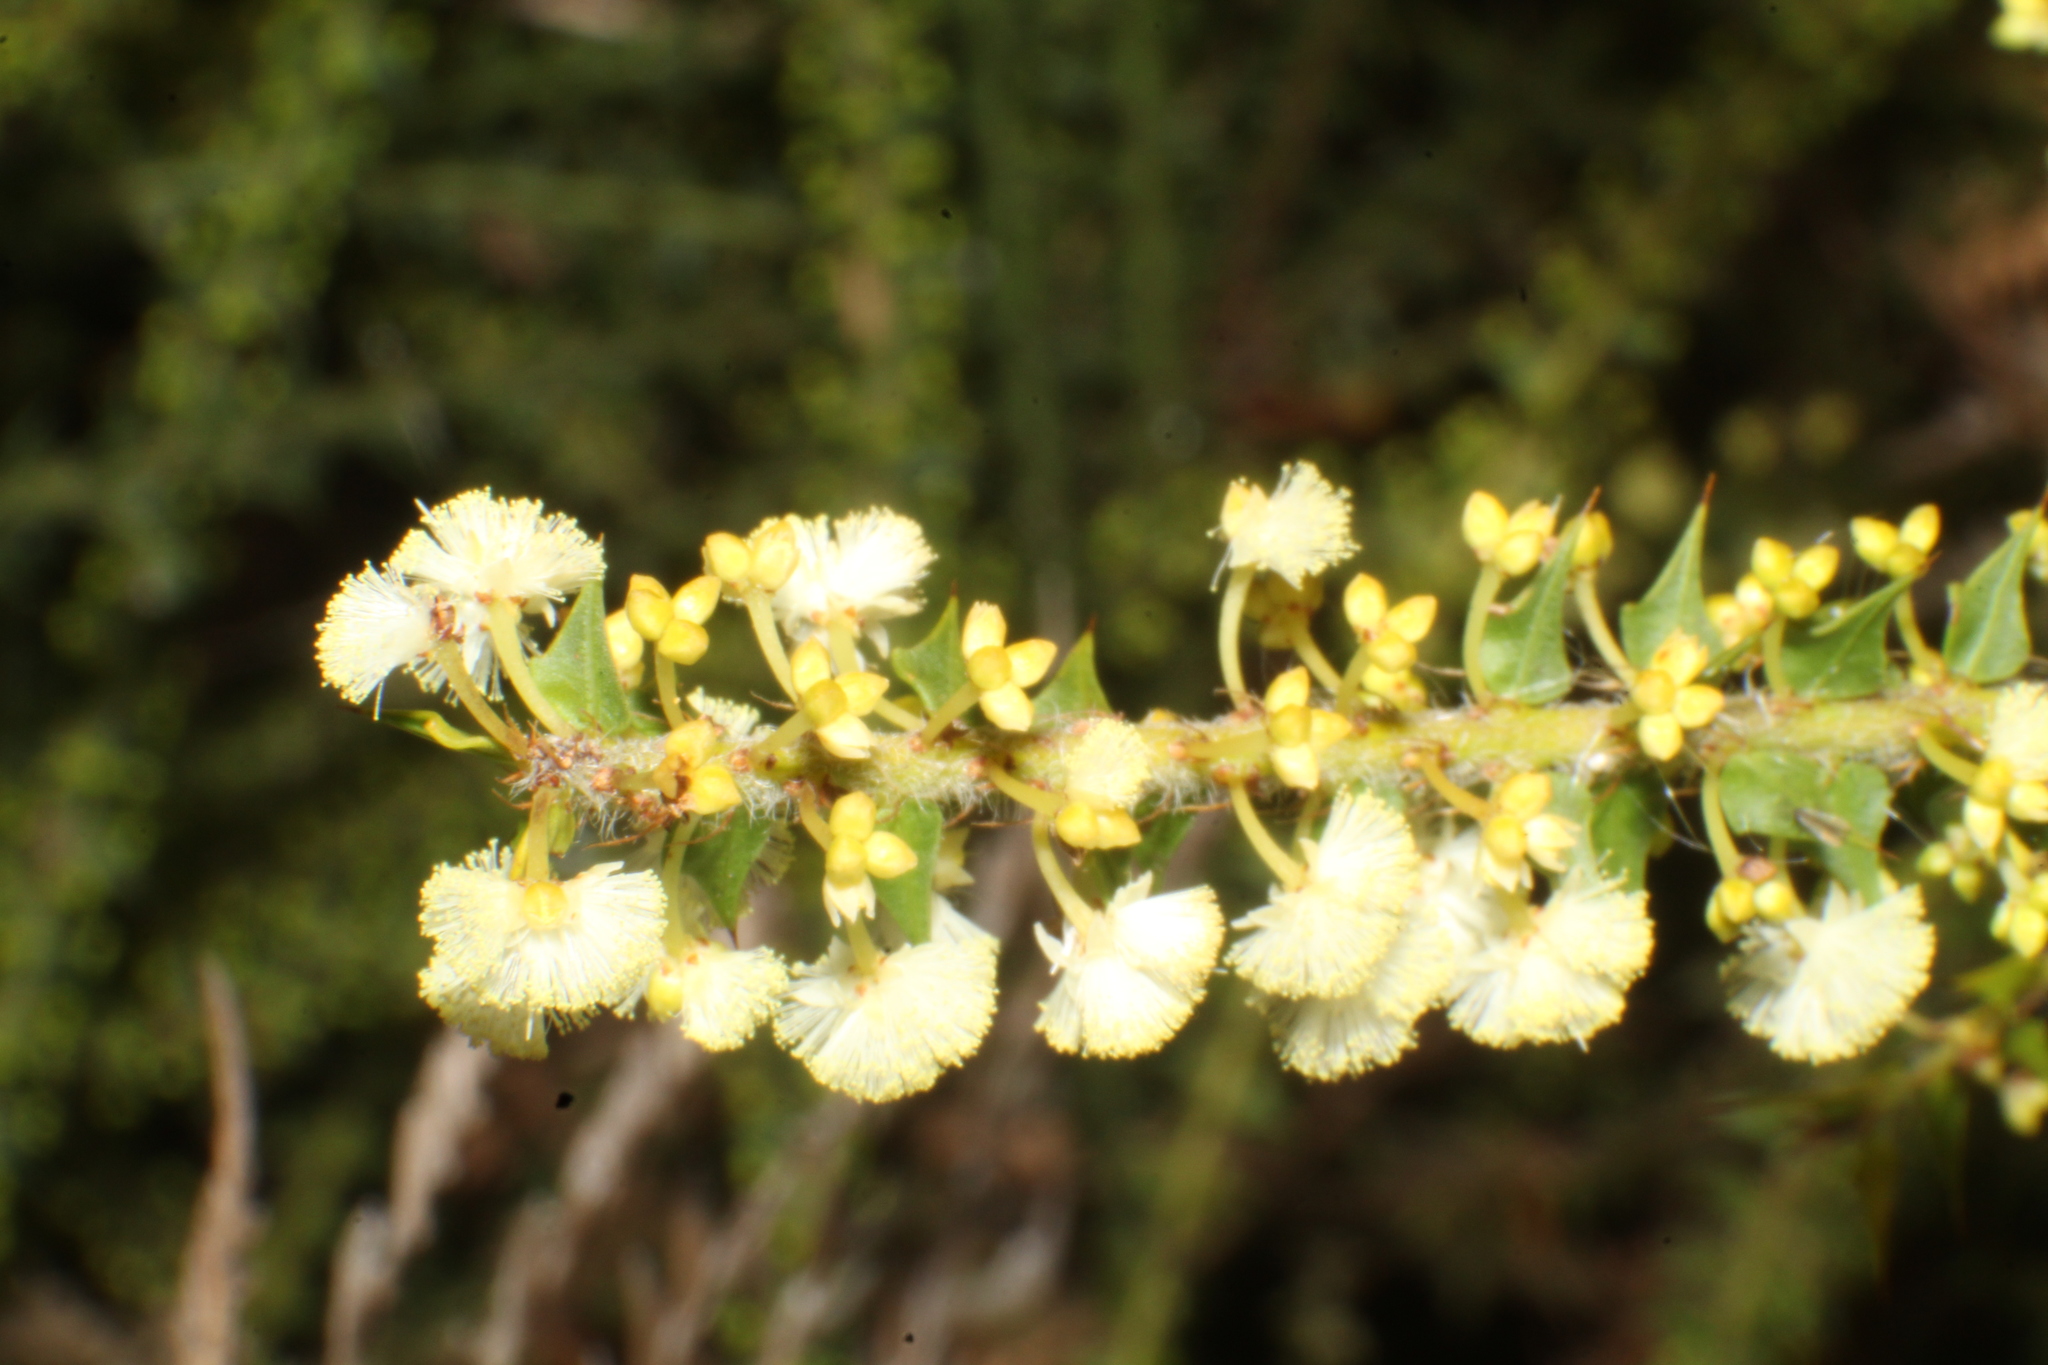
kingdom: Plantae
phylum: Tracheophyta
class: Magnoliopsida
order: Fabales
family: Fabaceae
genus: Acacia
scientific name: Acacia hastulata
